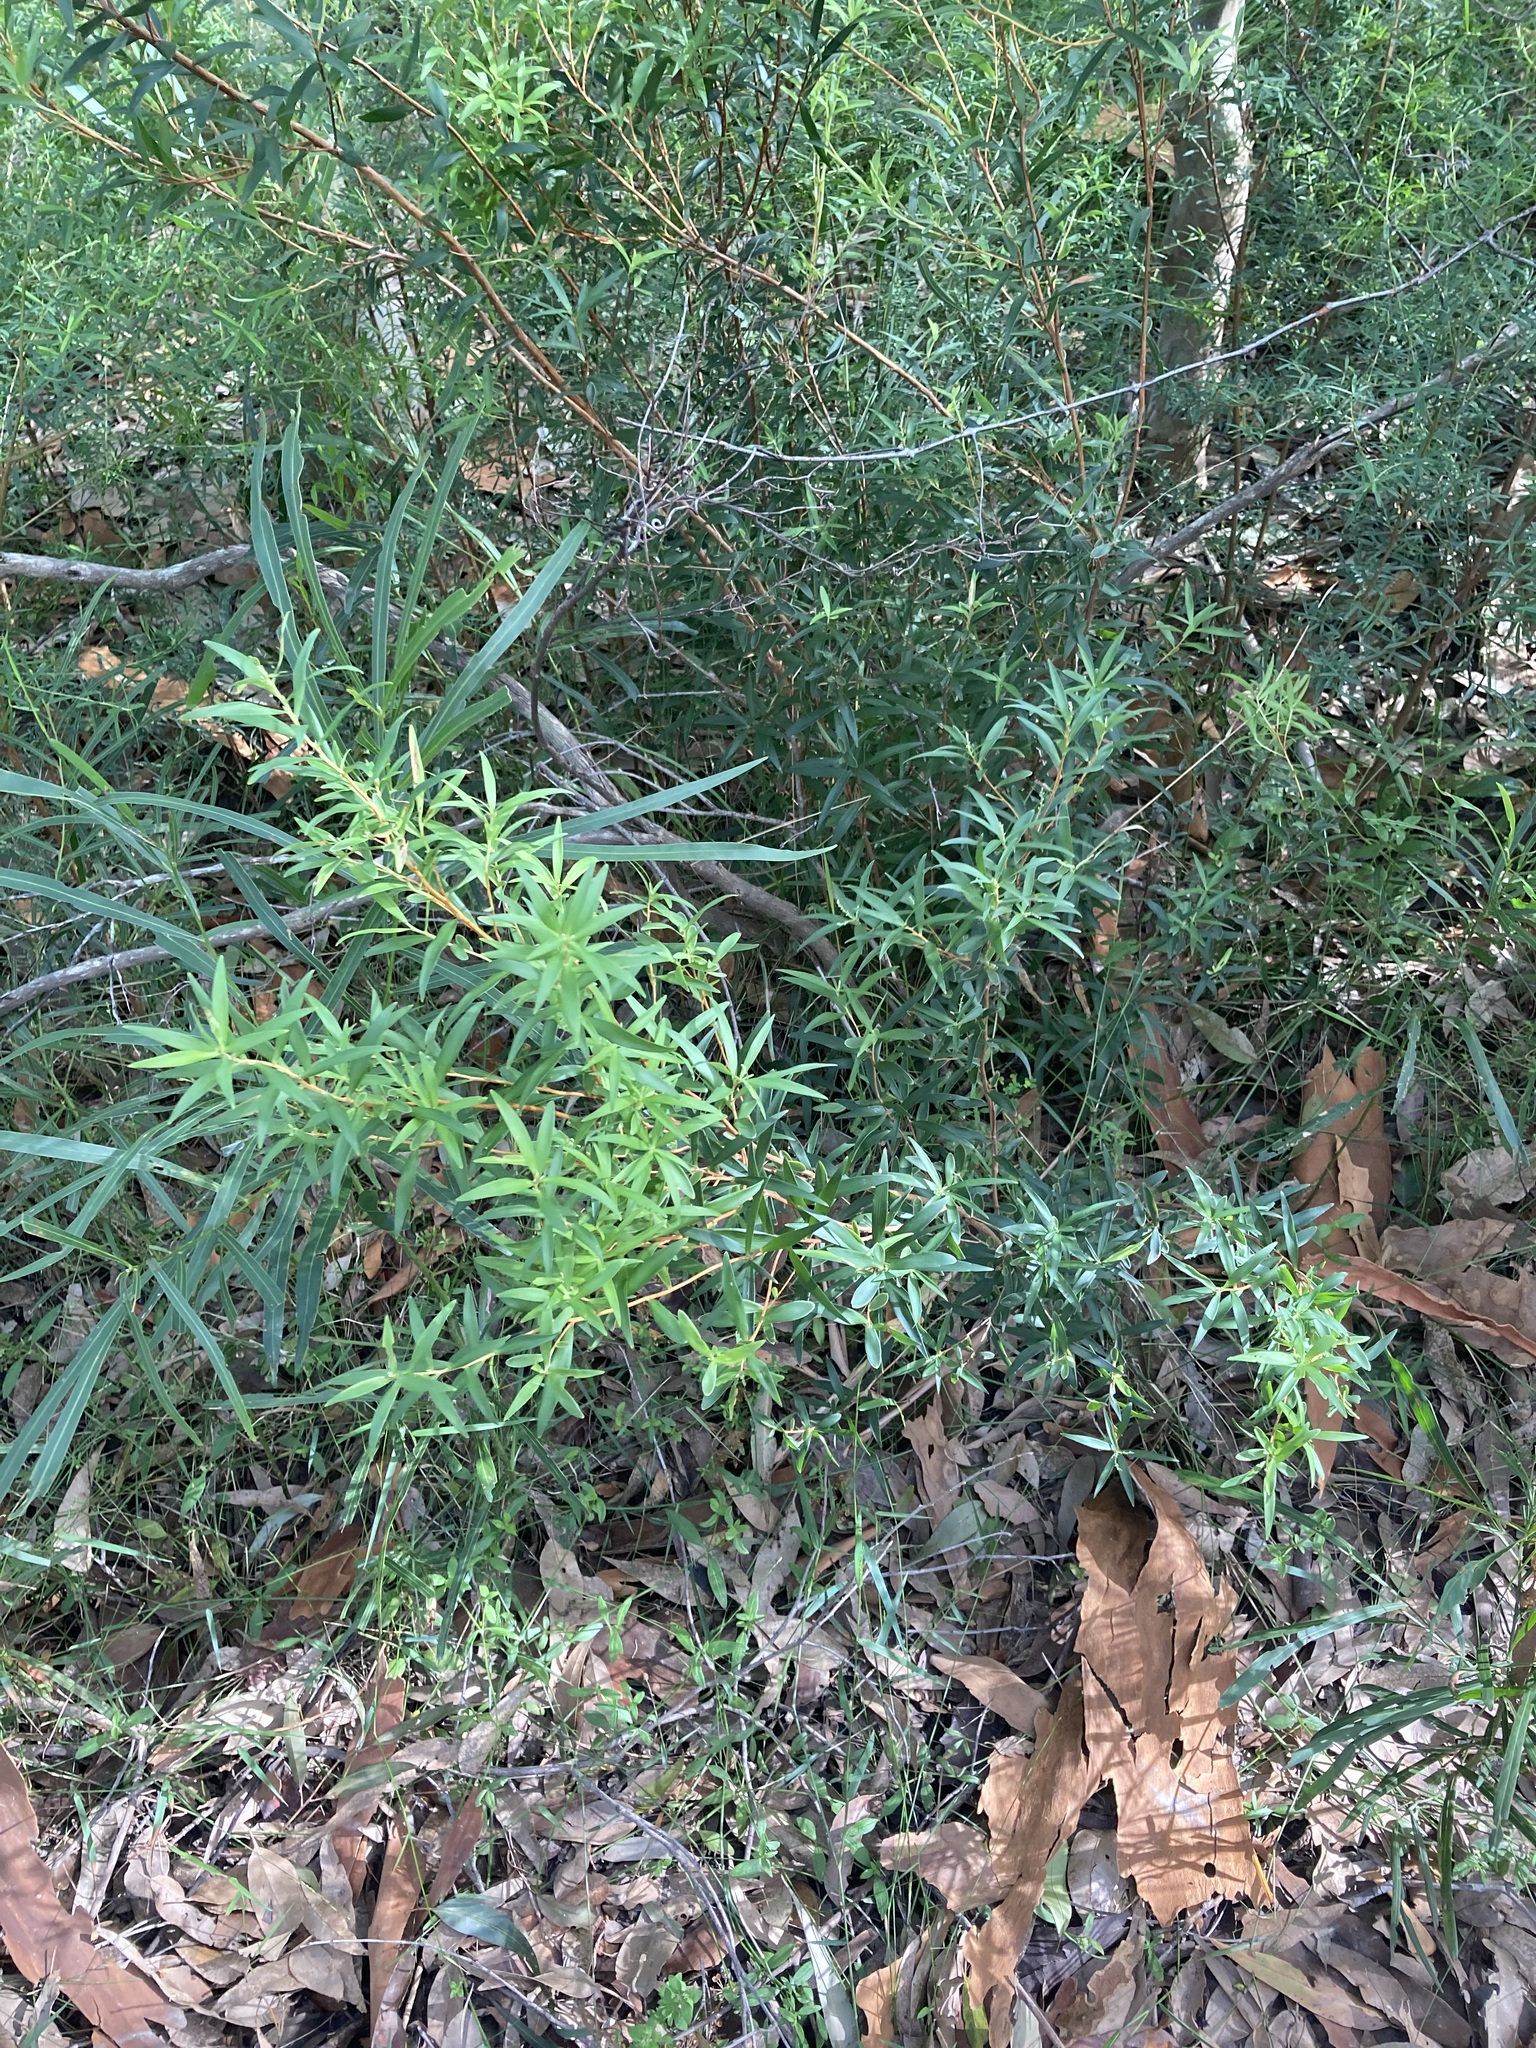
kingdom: Plantae
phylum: Tracheophyta
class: Magnoliopsida
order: Ericales
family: Ericaceae
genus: Leucopogon
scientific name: Leucopogon lanceolatus
